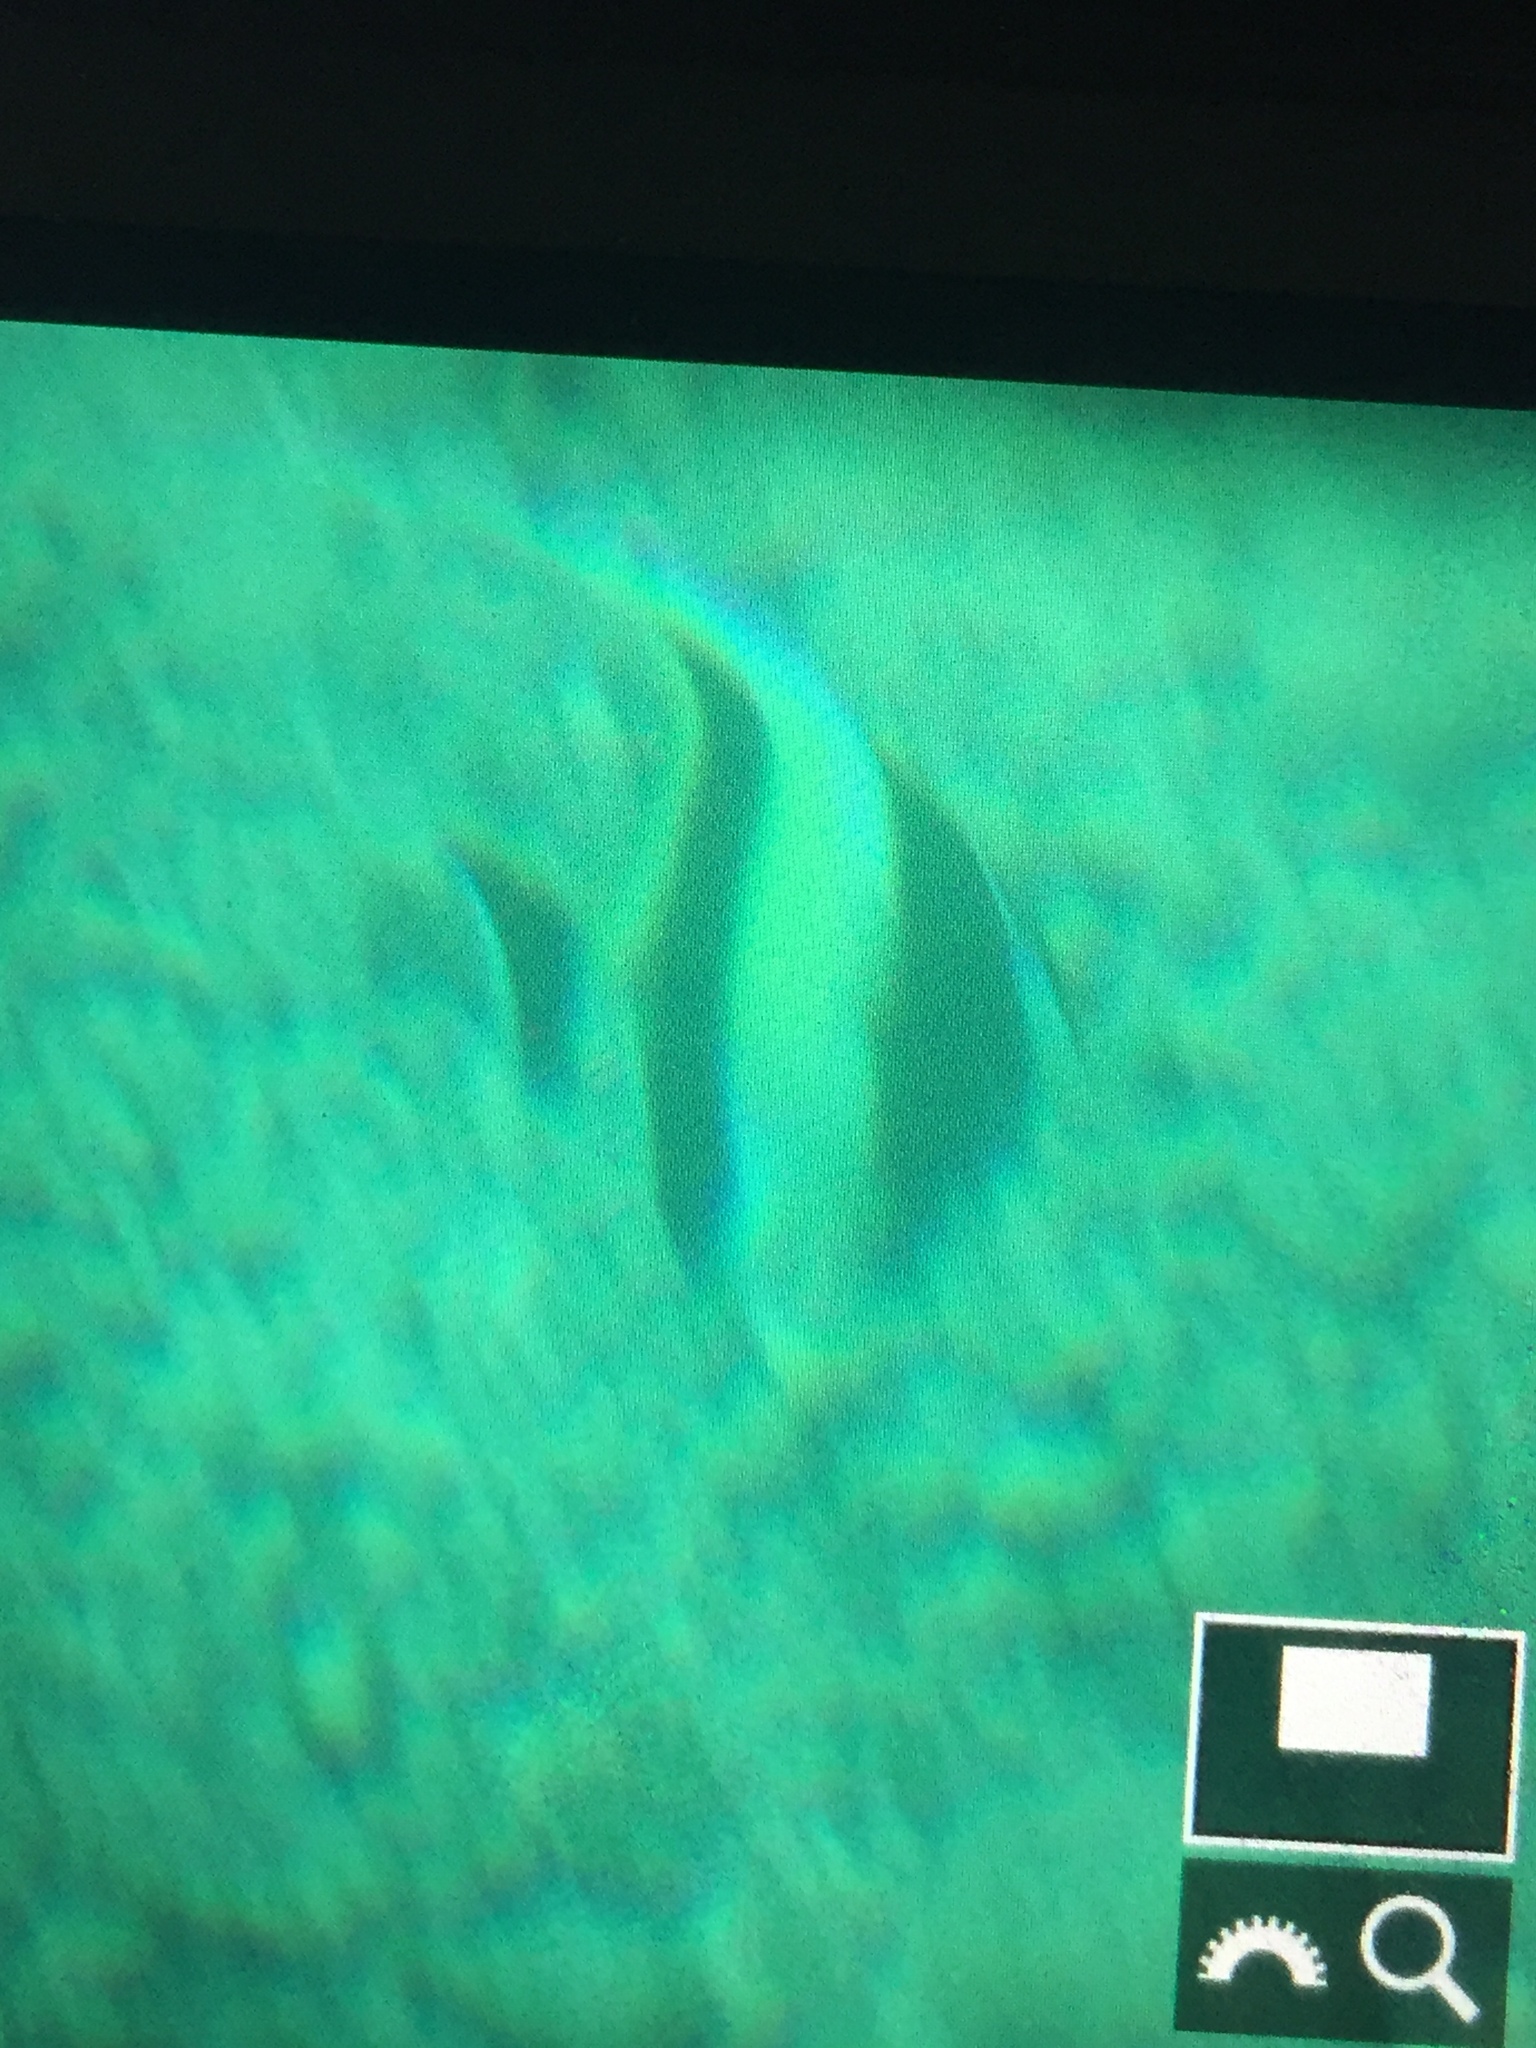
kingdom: Animalia
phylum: Chordata
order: Perciformes
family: Zanclidae
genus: Zanclus
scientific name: Zanclus cornutus
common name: Moorish idol
